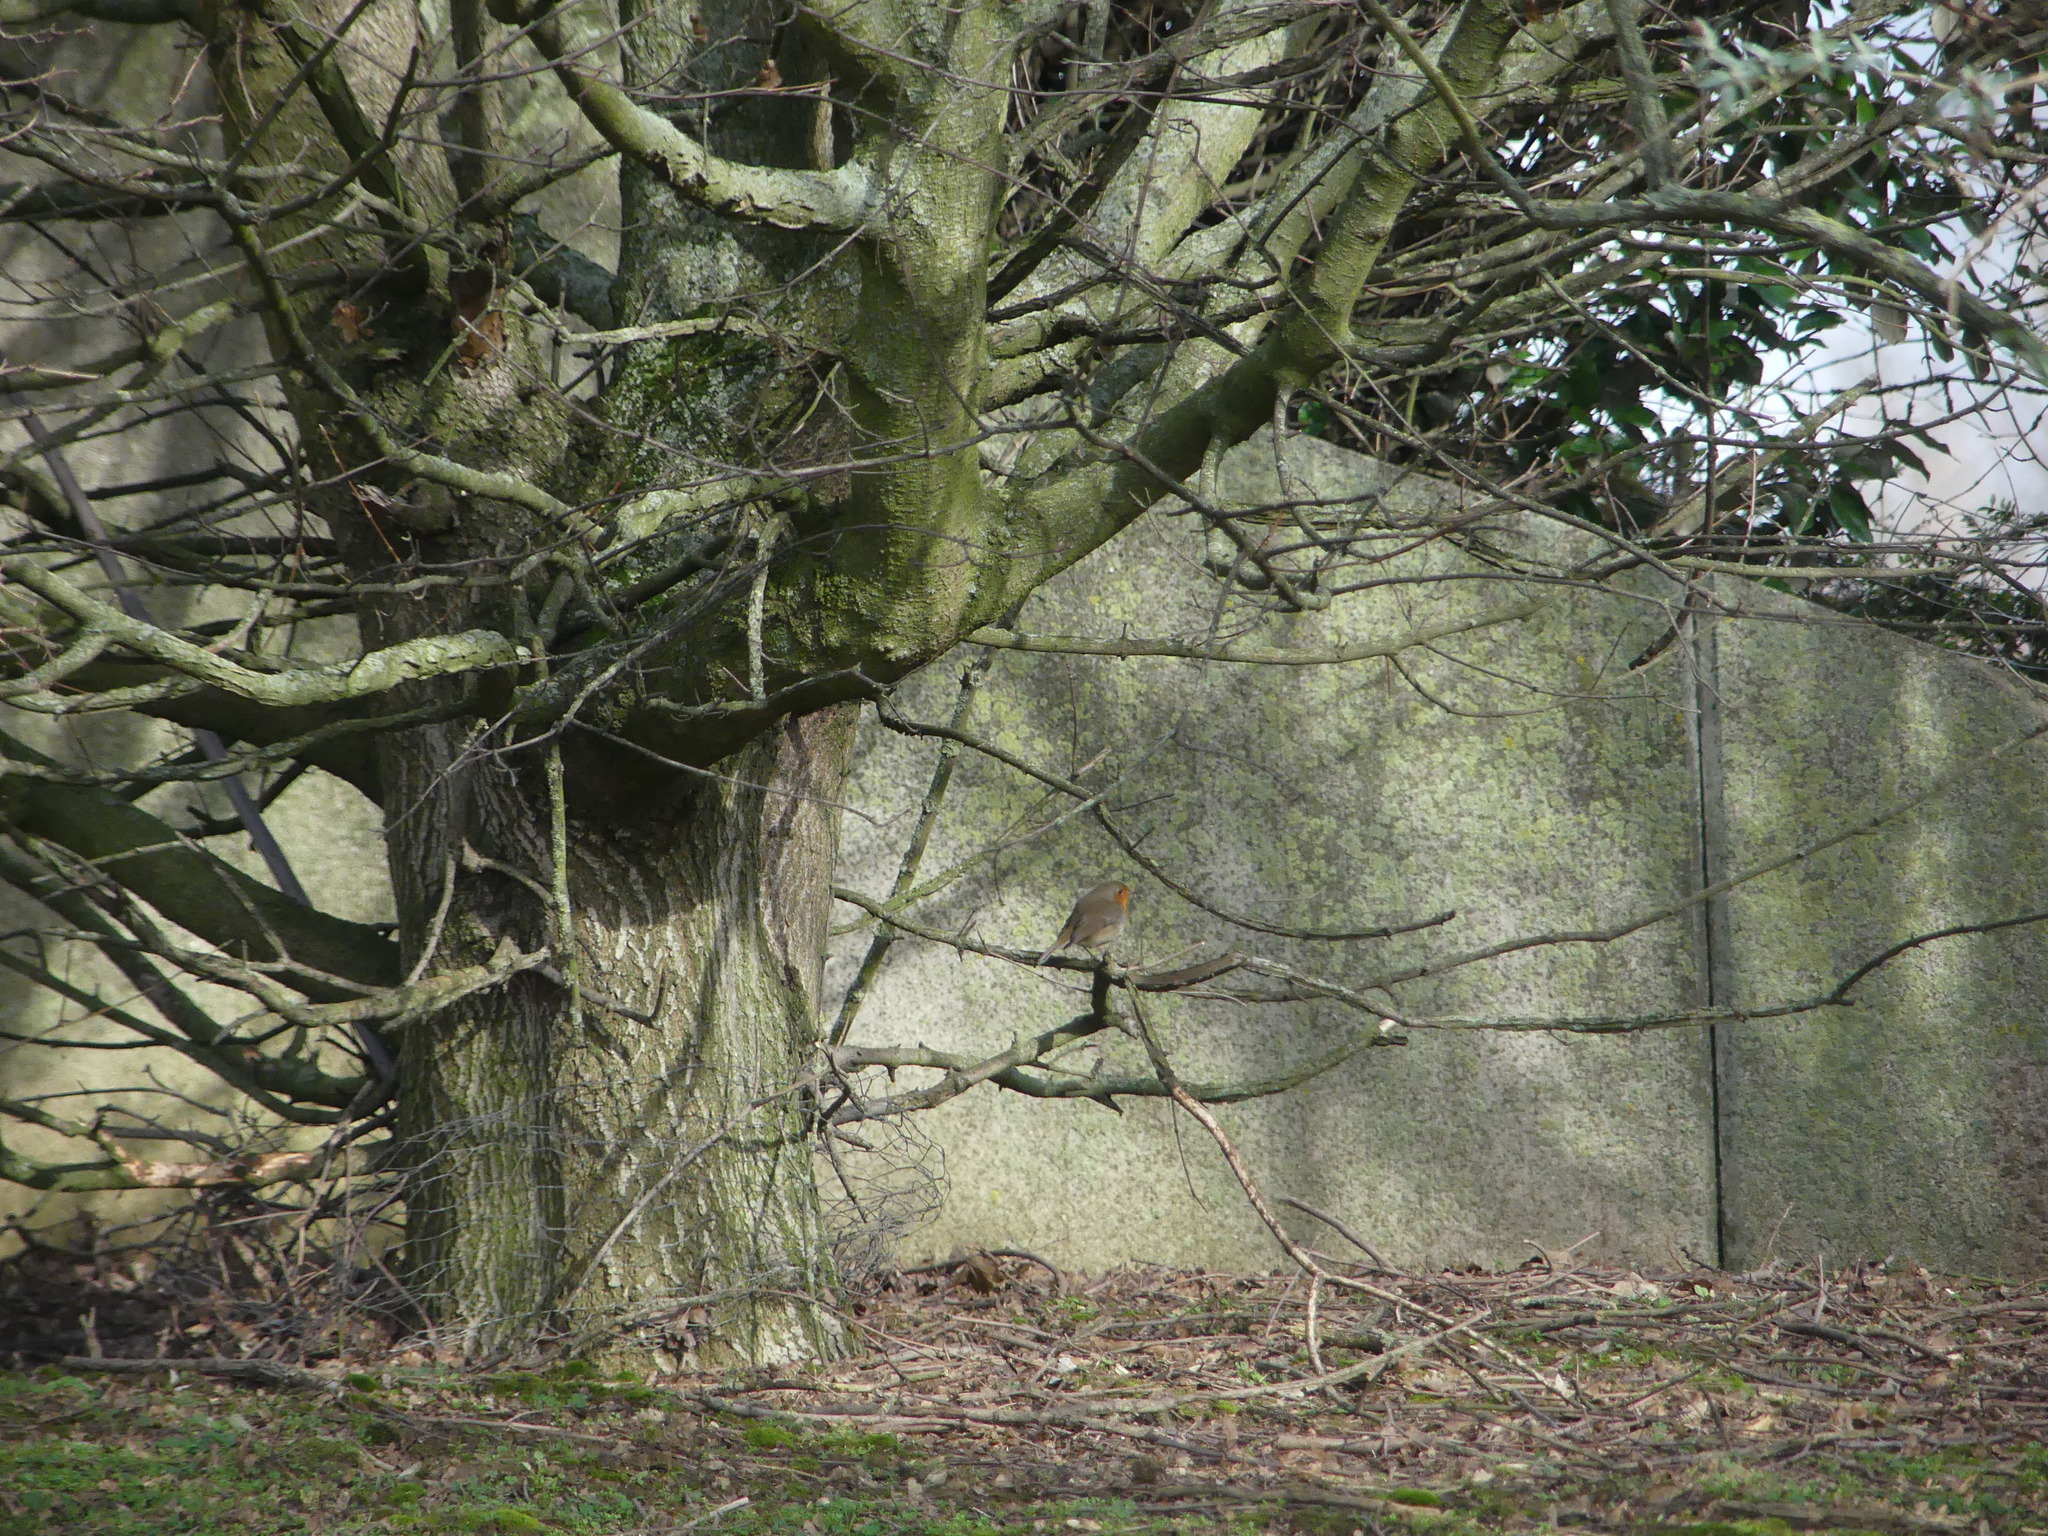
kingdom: Animalia
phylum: Chordata
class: Aves
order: Passeriformes
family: Muscicapidae
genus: Erithacus
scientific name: Erithacus rubecula
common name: European robin
